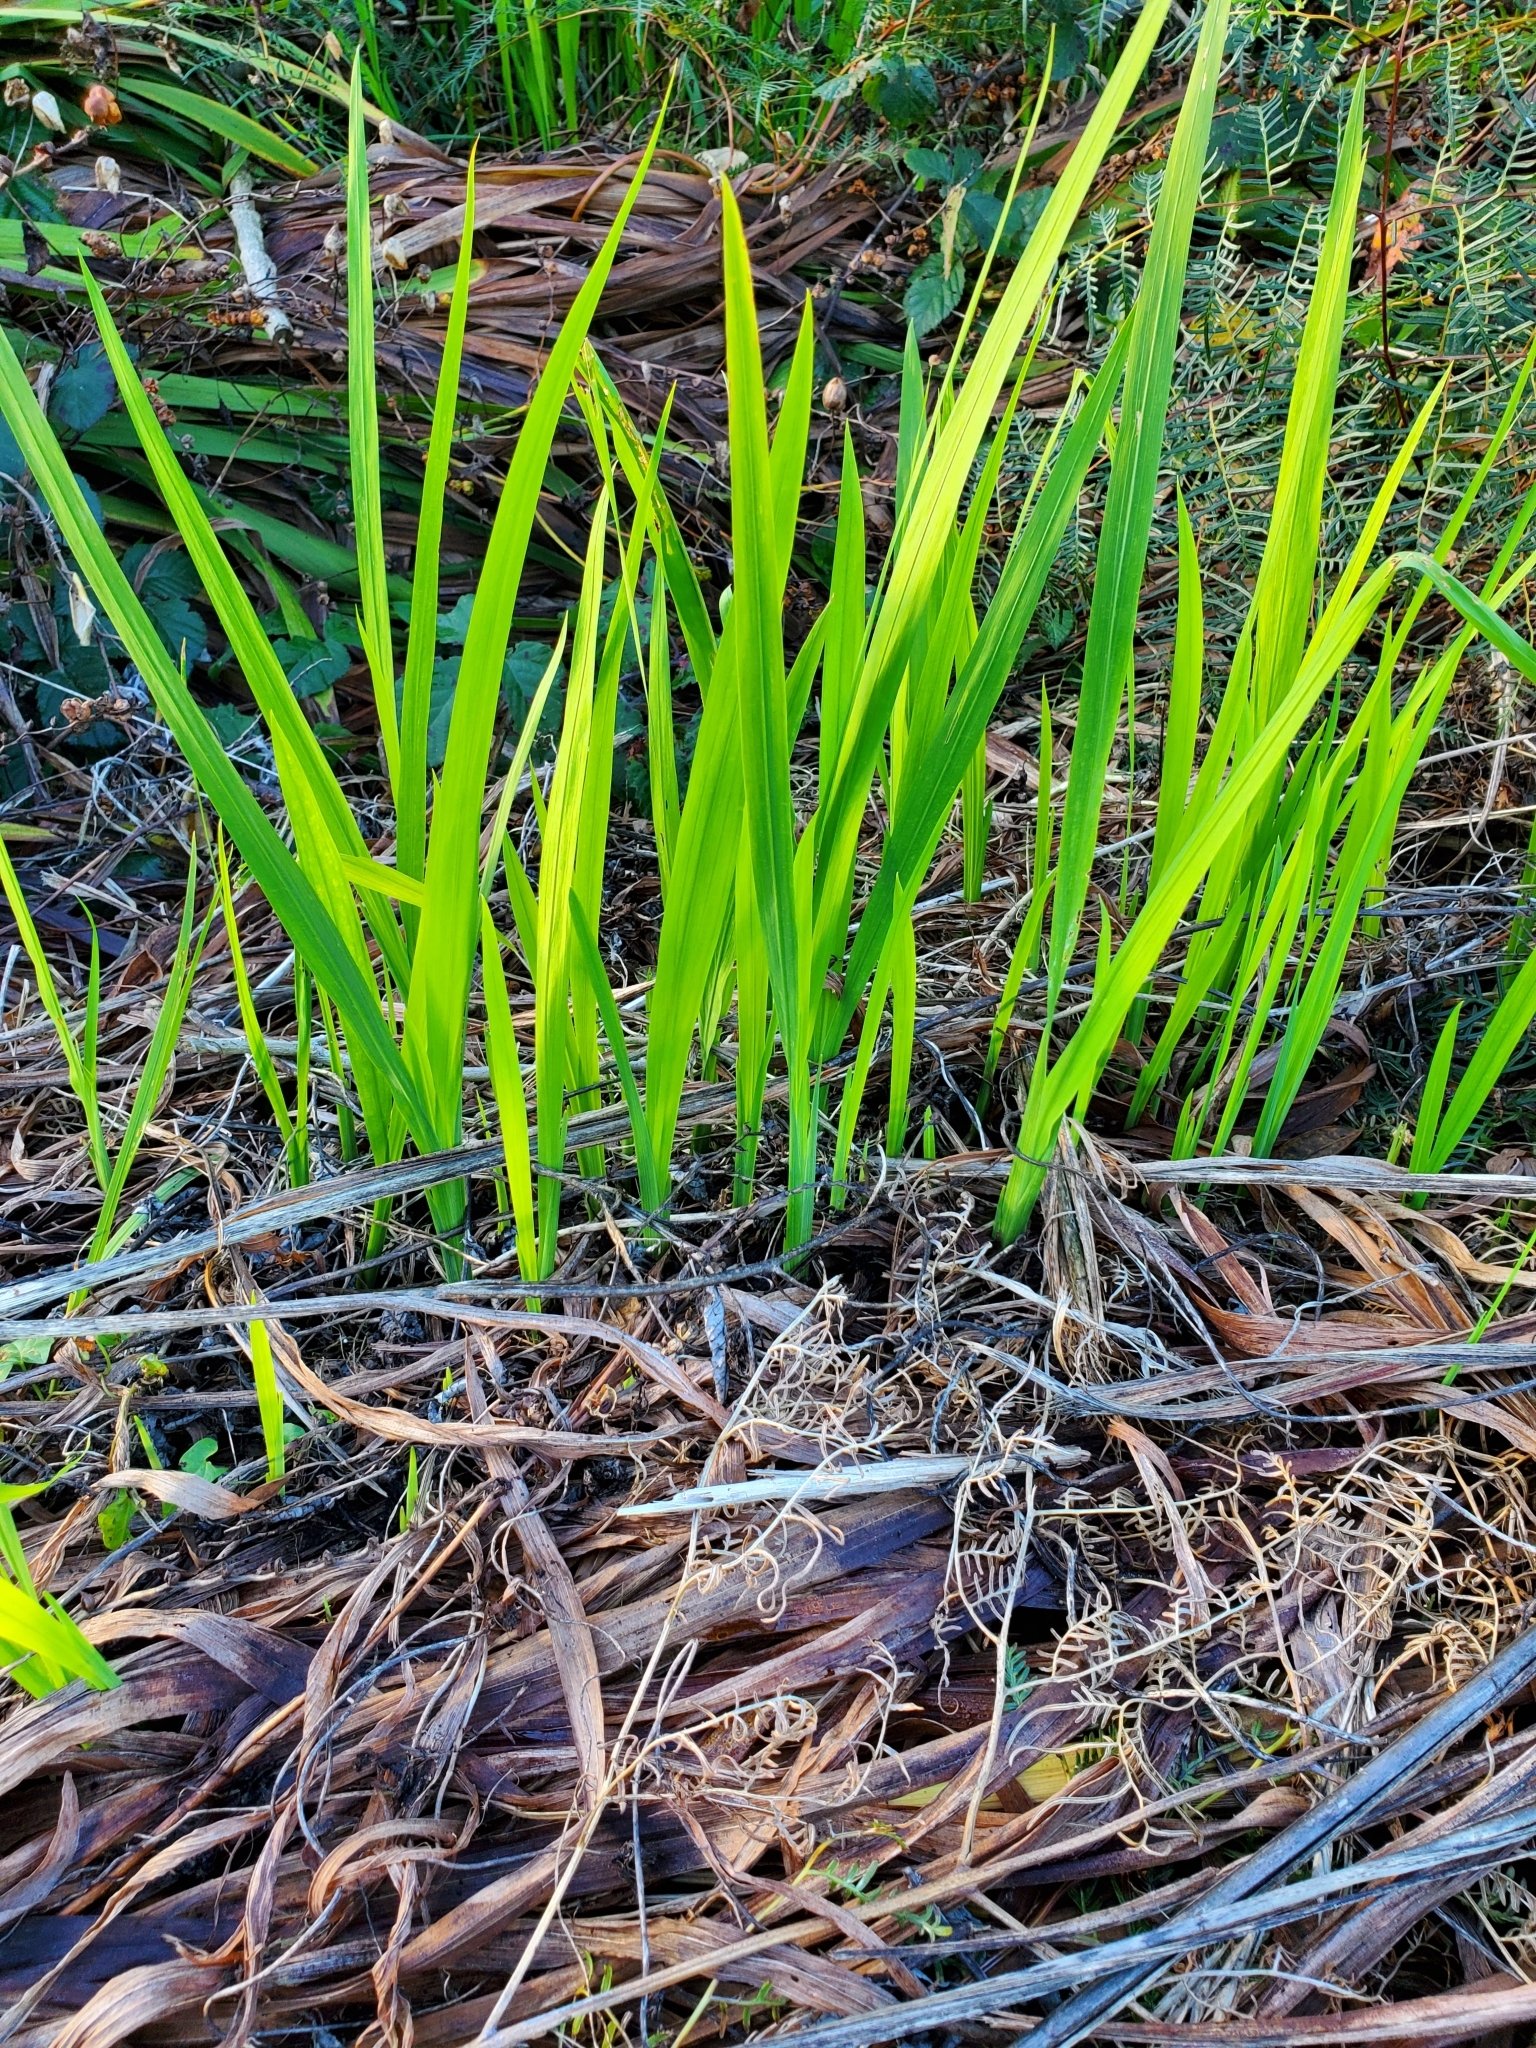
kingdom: Plantae
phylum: Tracheophyta
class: Liliopsida
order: Asparagales
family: Iridaceae
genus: Crocosmia
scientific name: Crocosmia crocosmiiflora
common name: Montbretia
